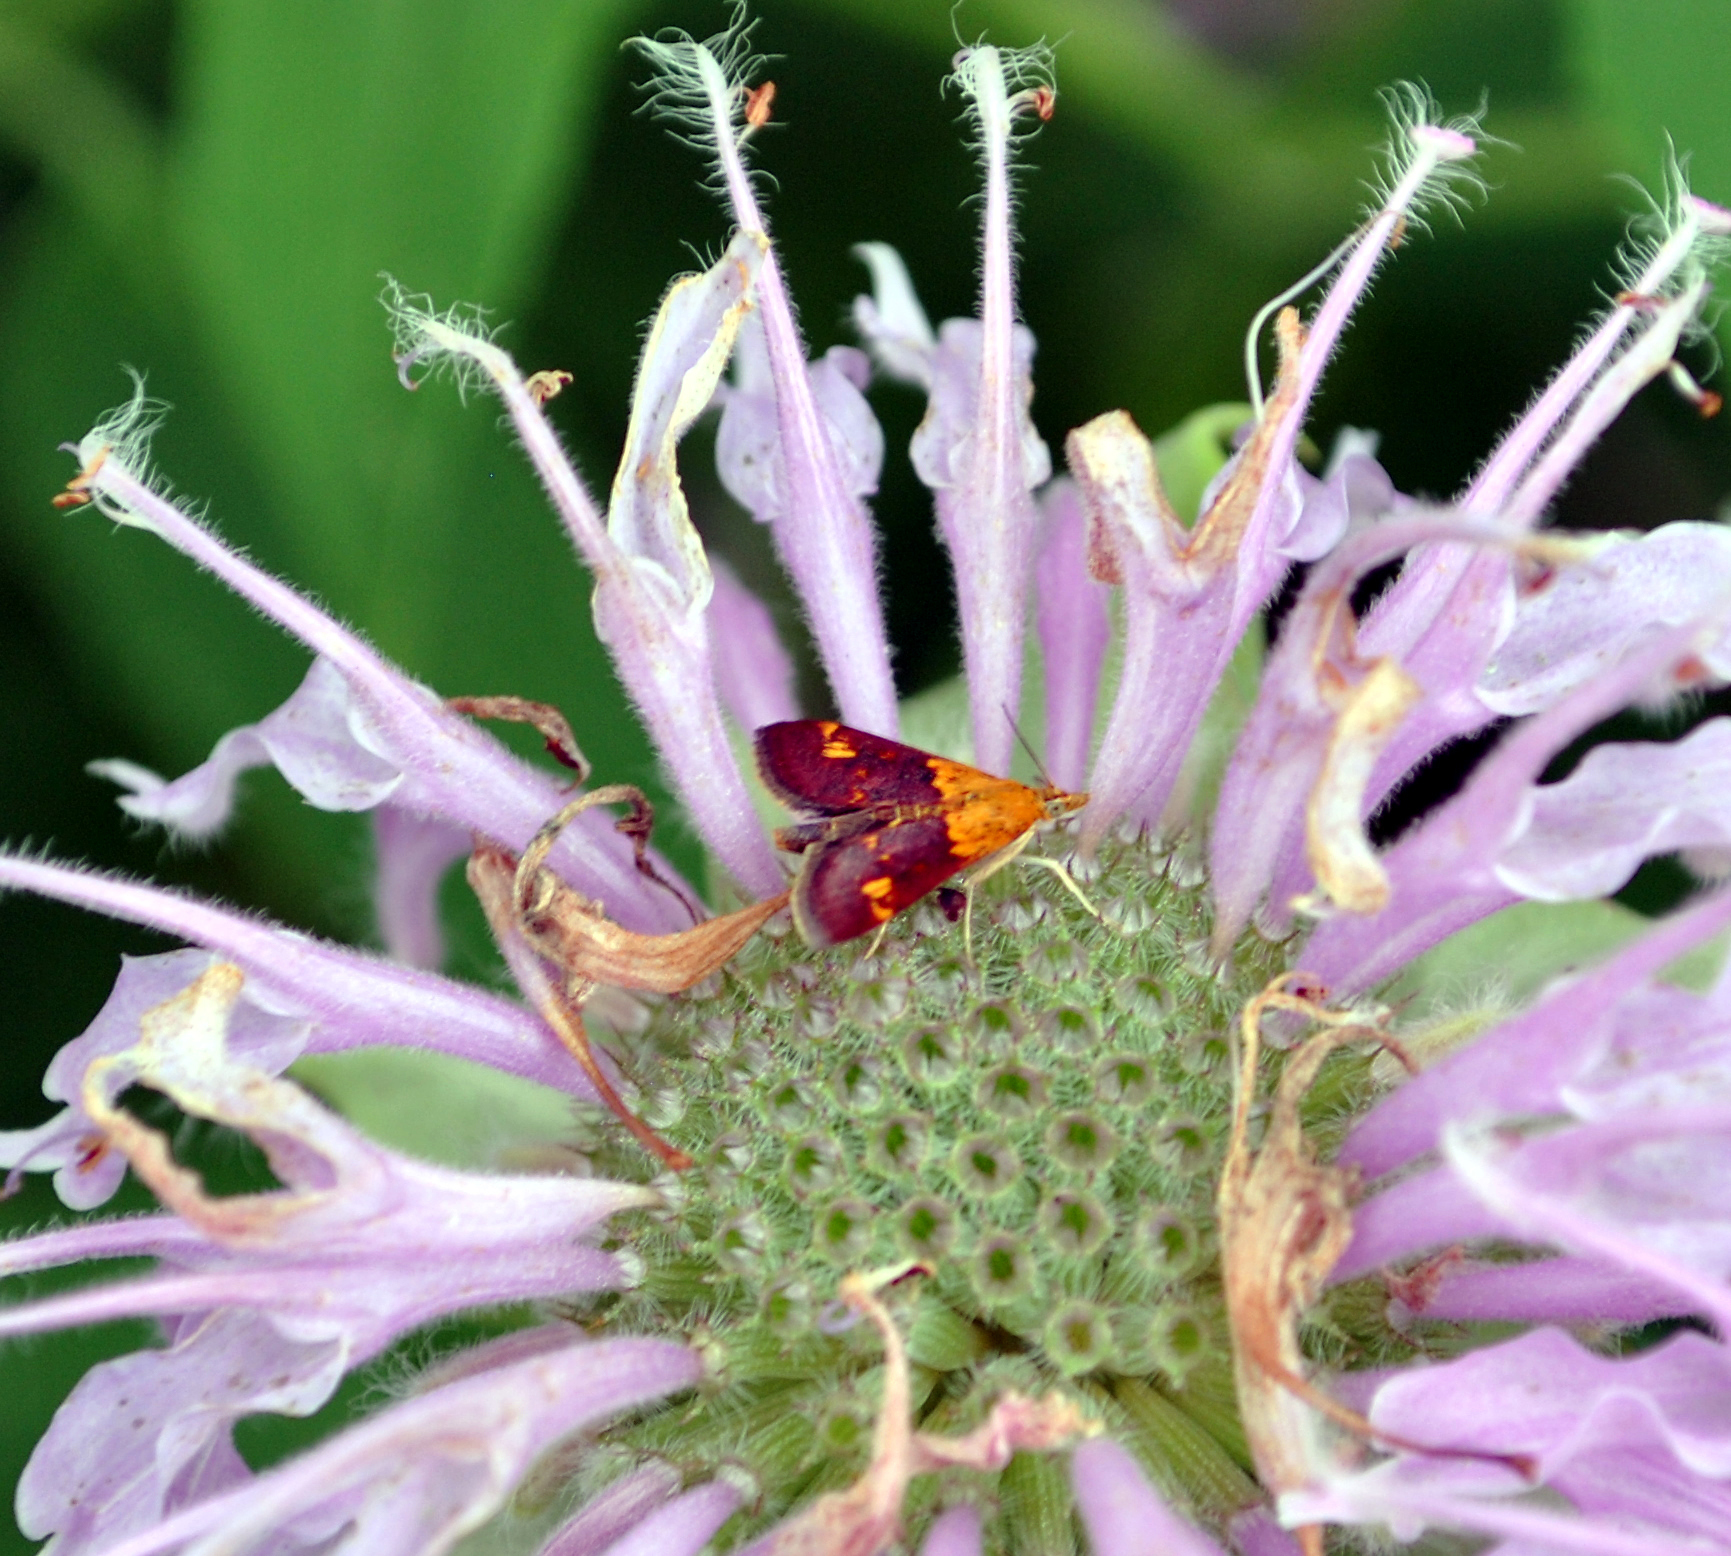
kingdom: Animalia
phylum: Arthropoda
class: Insecta
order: Lepidoptera
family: Crambidae
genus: Pyrausta
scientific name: Pyrausta orphisalis
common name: Orange mint moth
